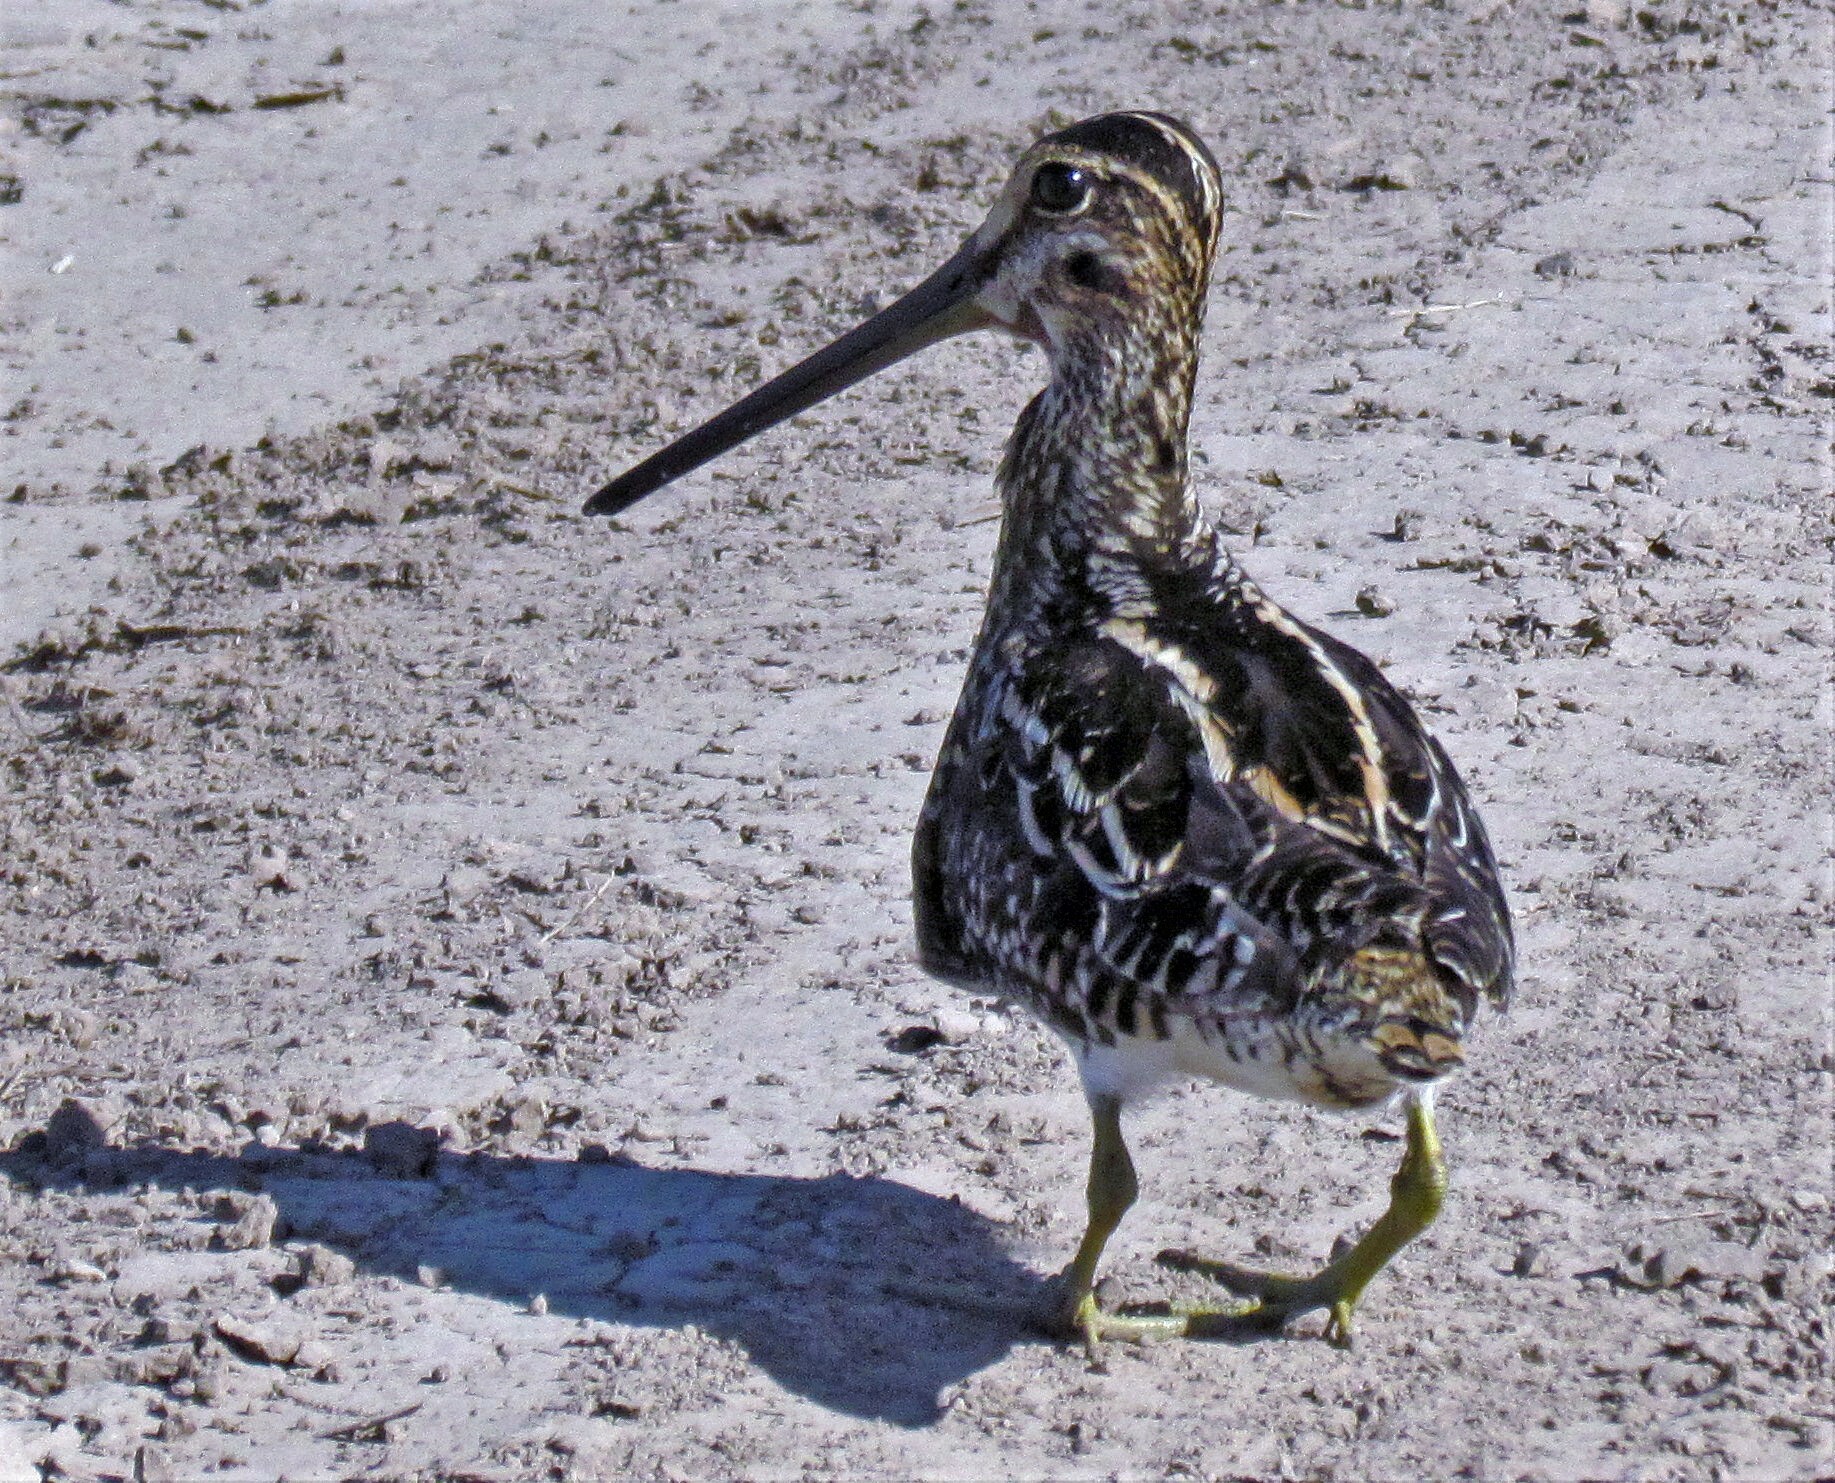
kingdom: Animalia
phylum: Chordata
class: Aves
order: Charadriiformes
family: Scolopacidae
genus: Gallinago
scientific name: Gallinago paraguaiae
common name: South american snipe
